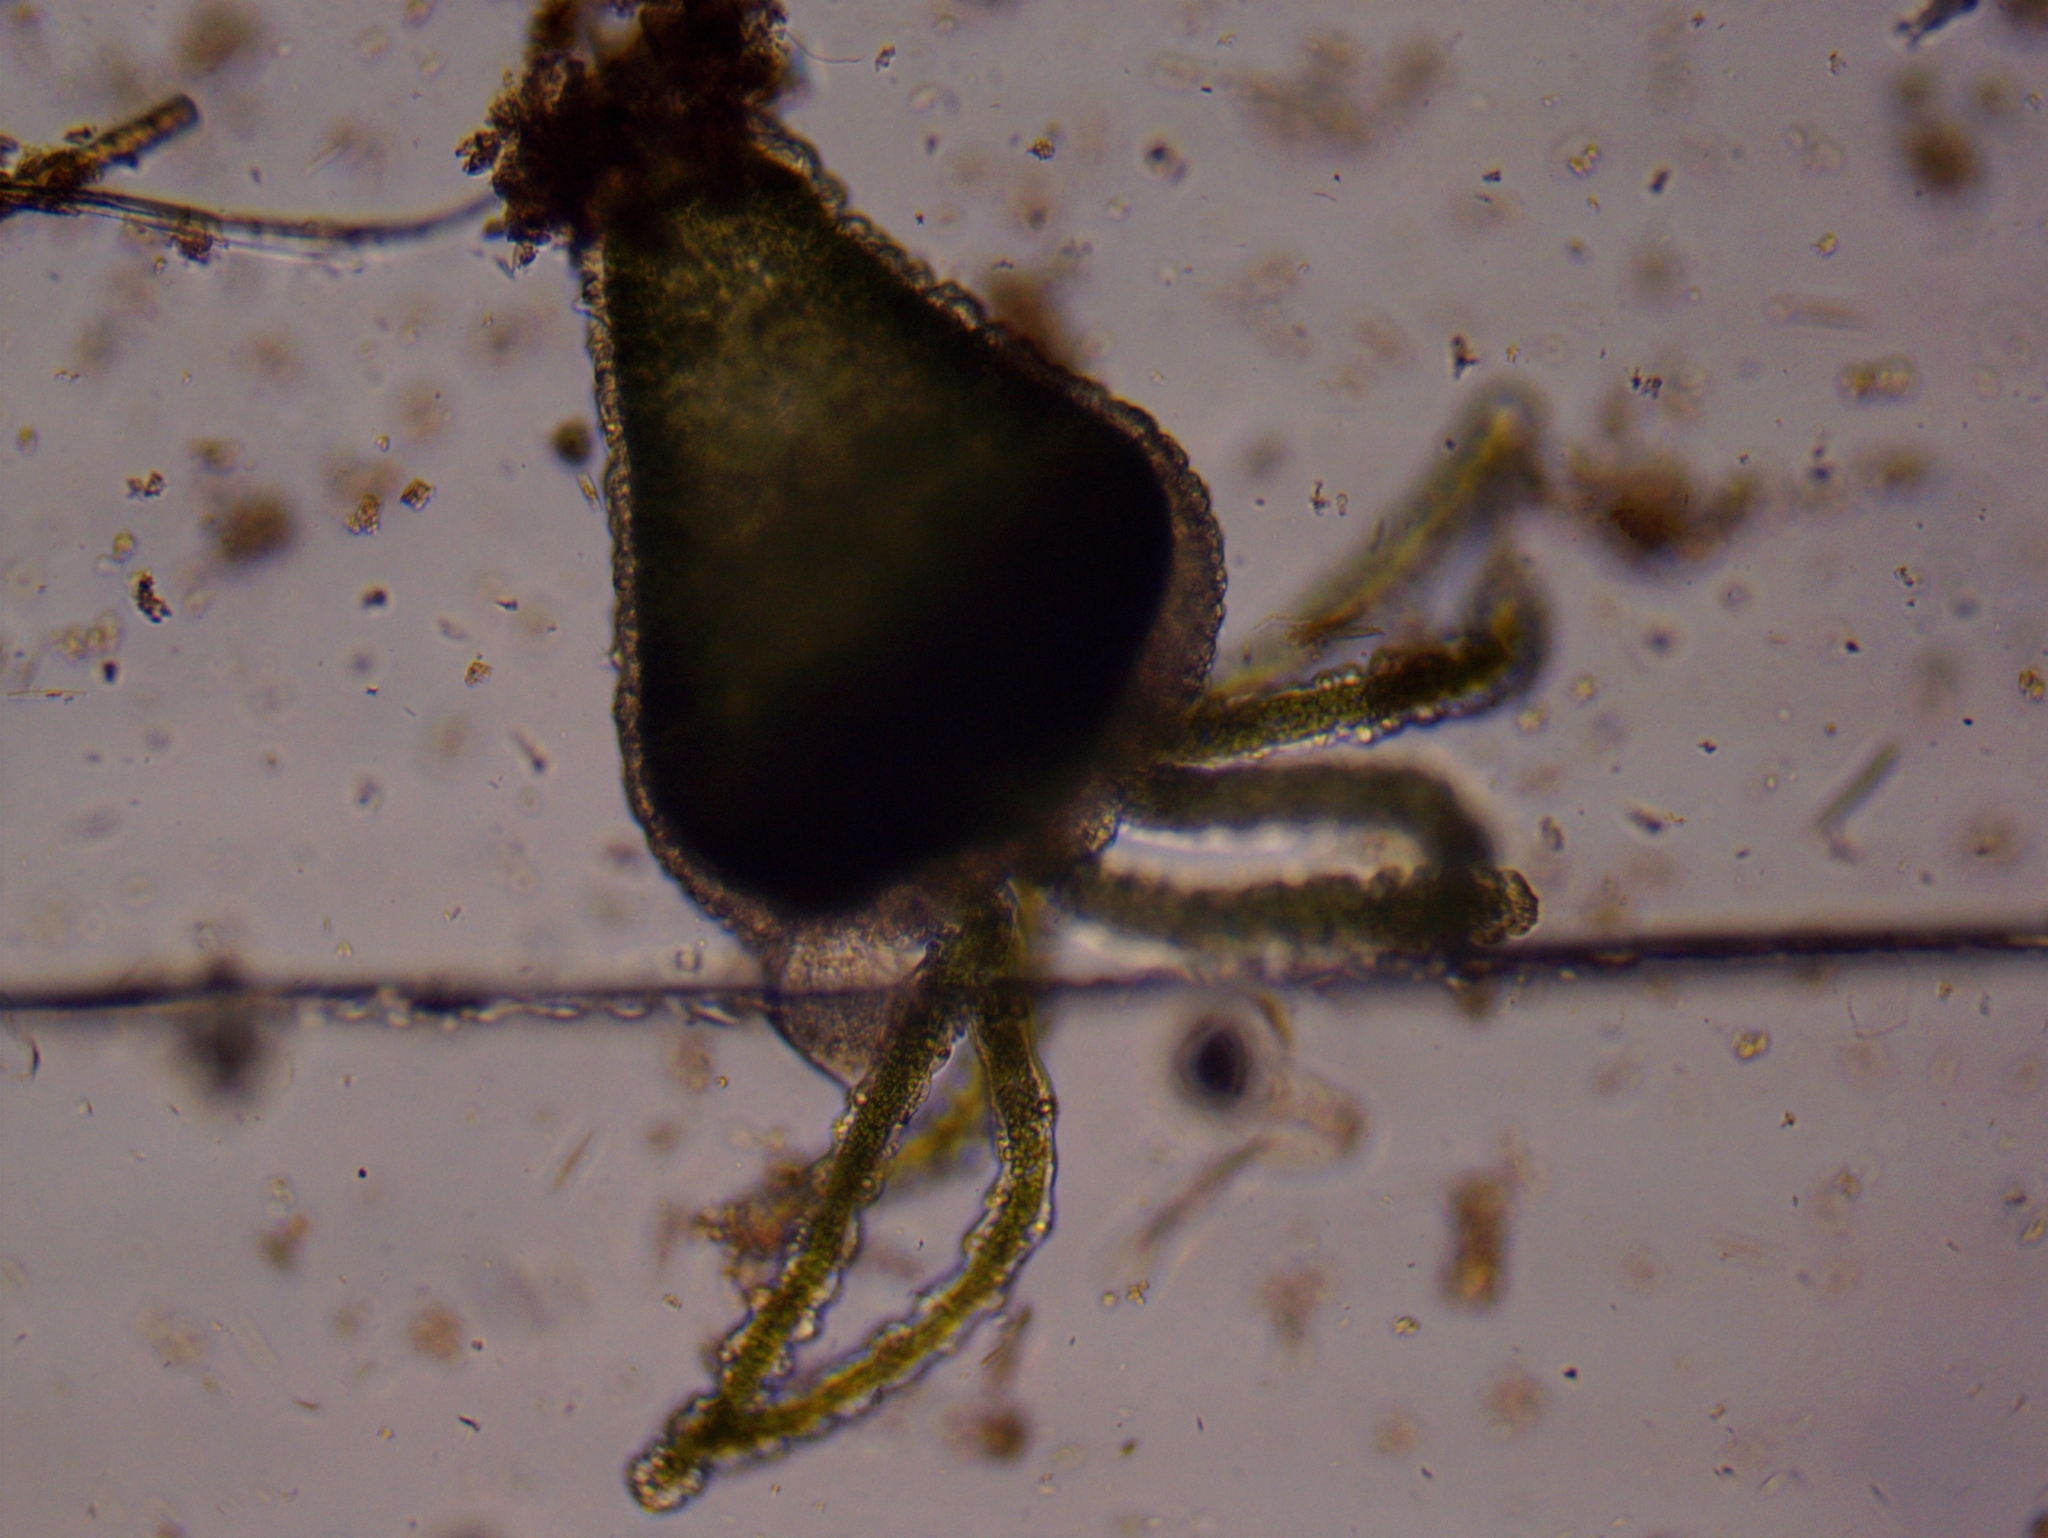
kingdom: Animalia
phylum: Cnidaria
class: Hydrozoa
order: Anthoathecata
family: Hydridae
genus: Hydra
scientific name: Hydra viridissima
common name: Green hydra
